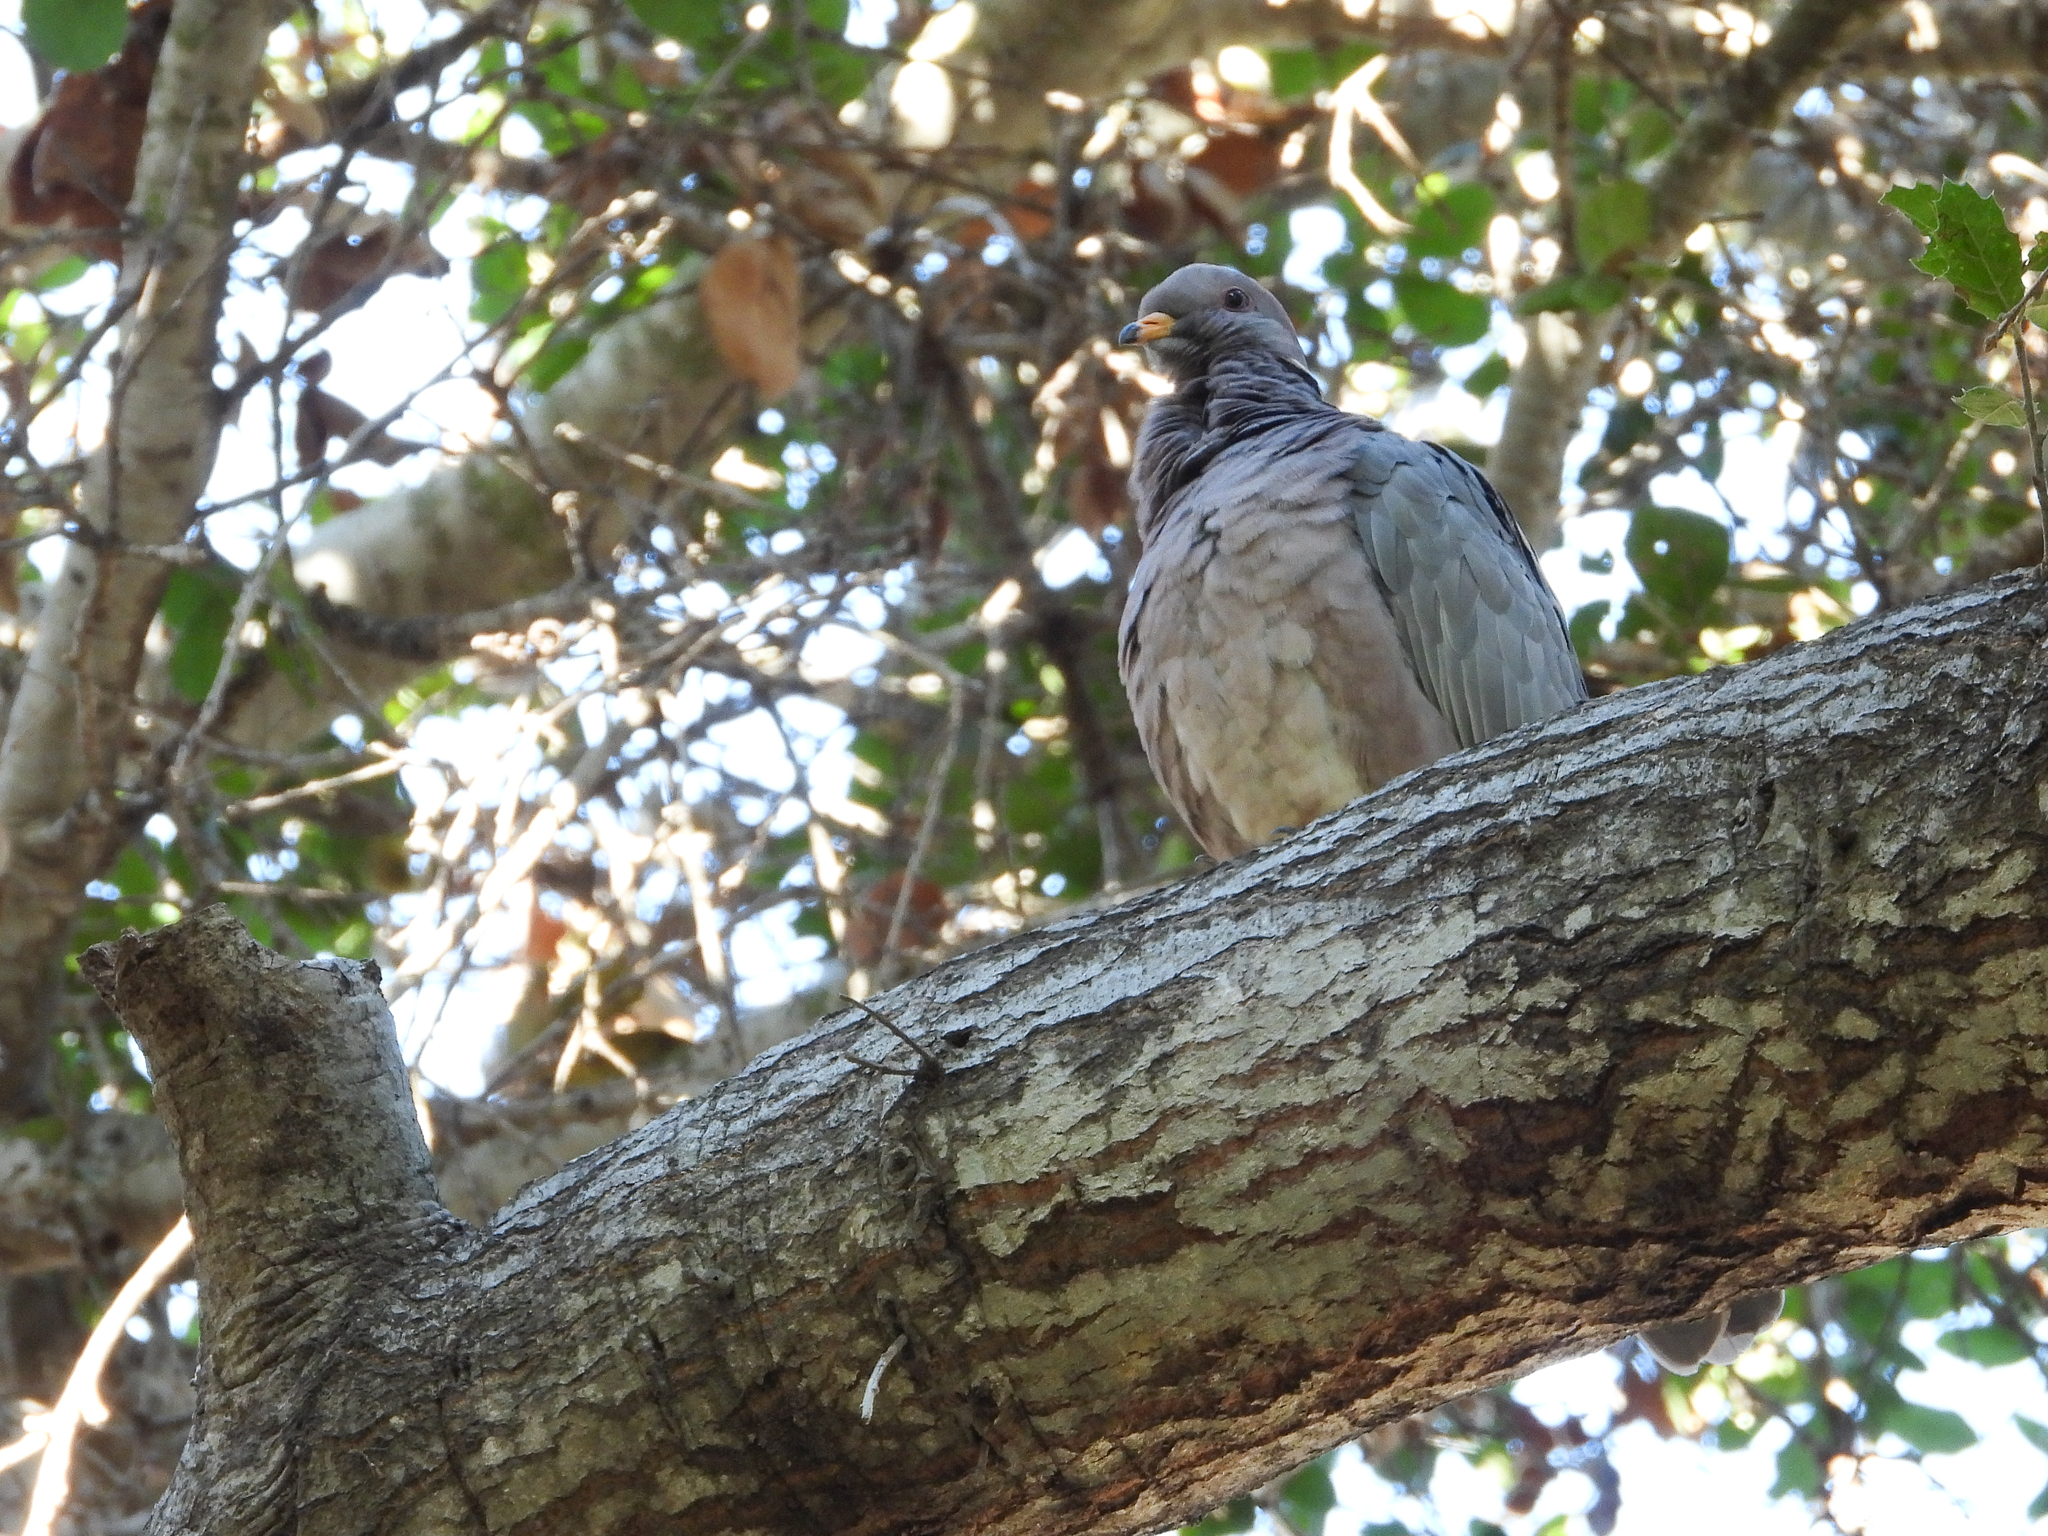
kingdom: Animalia
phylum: Chordata
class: Aves
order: Columbiformes
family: Columbidae
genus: Patagioenas
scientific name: Patagioenas fasciata
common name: Band-tailed pigeon
